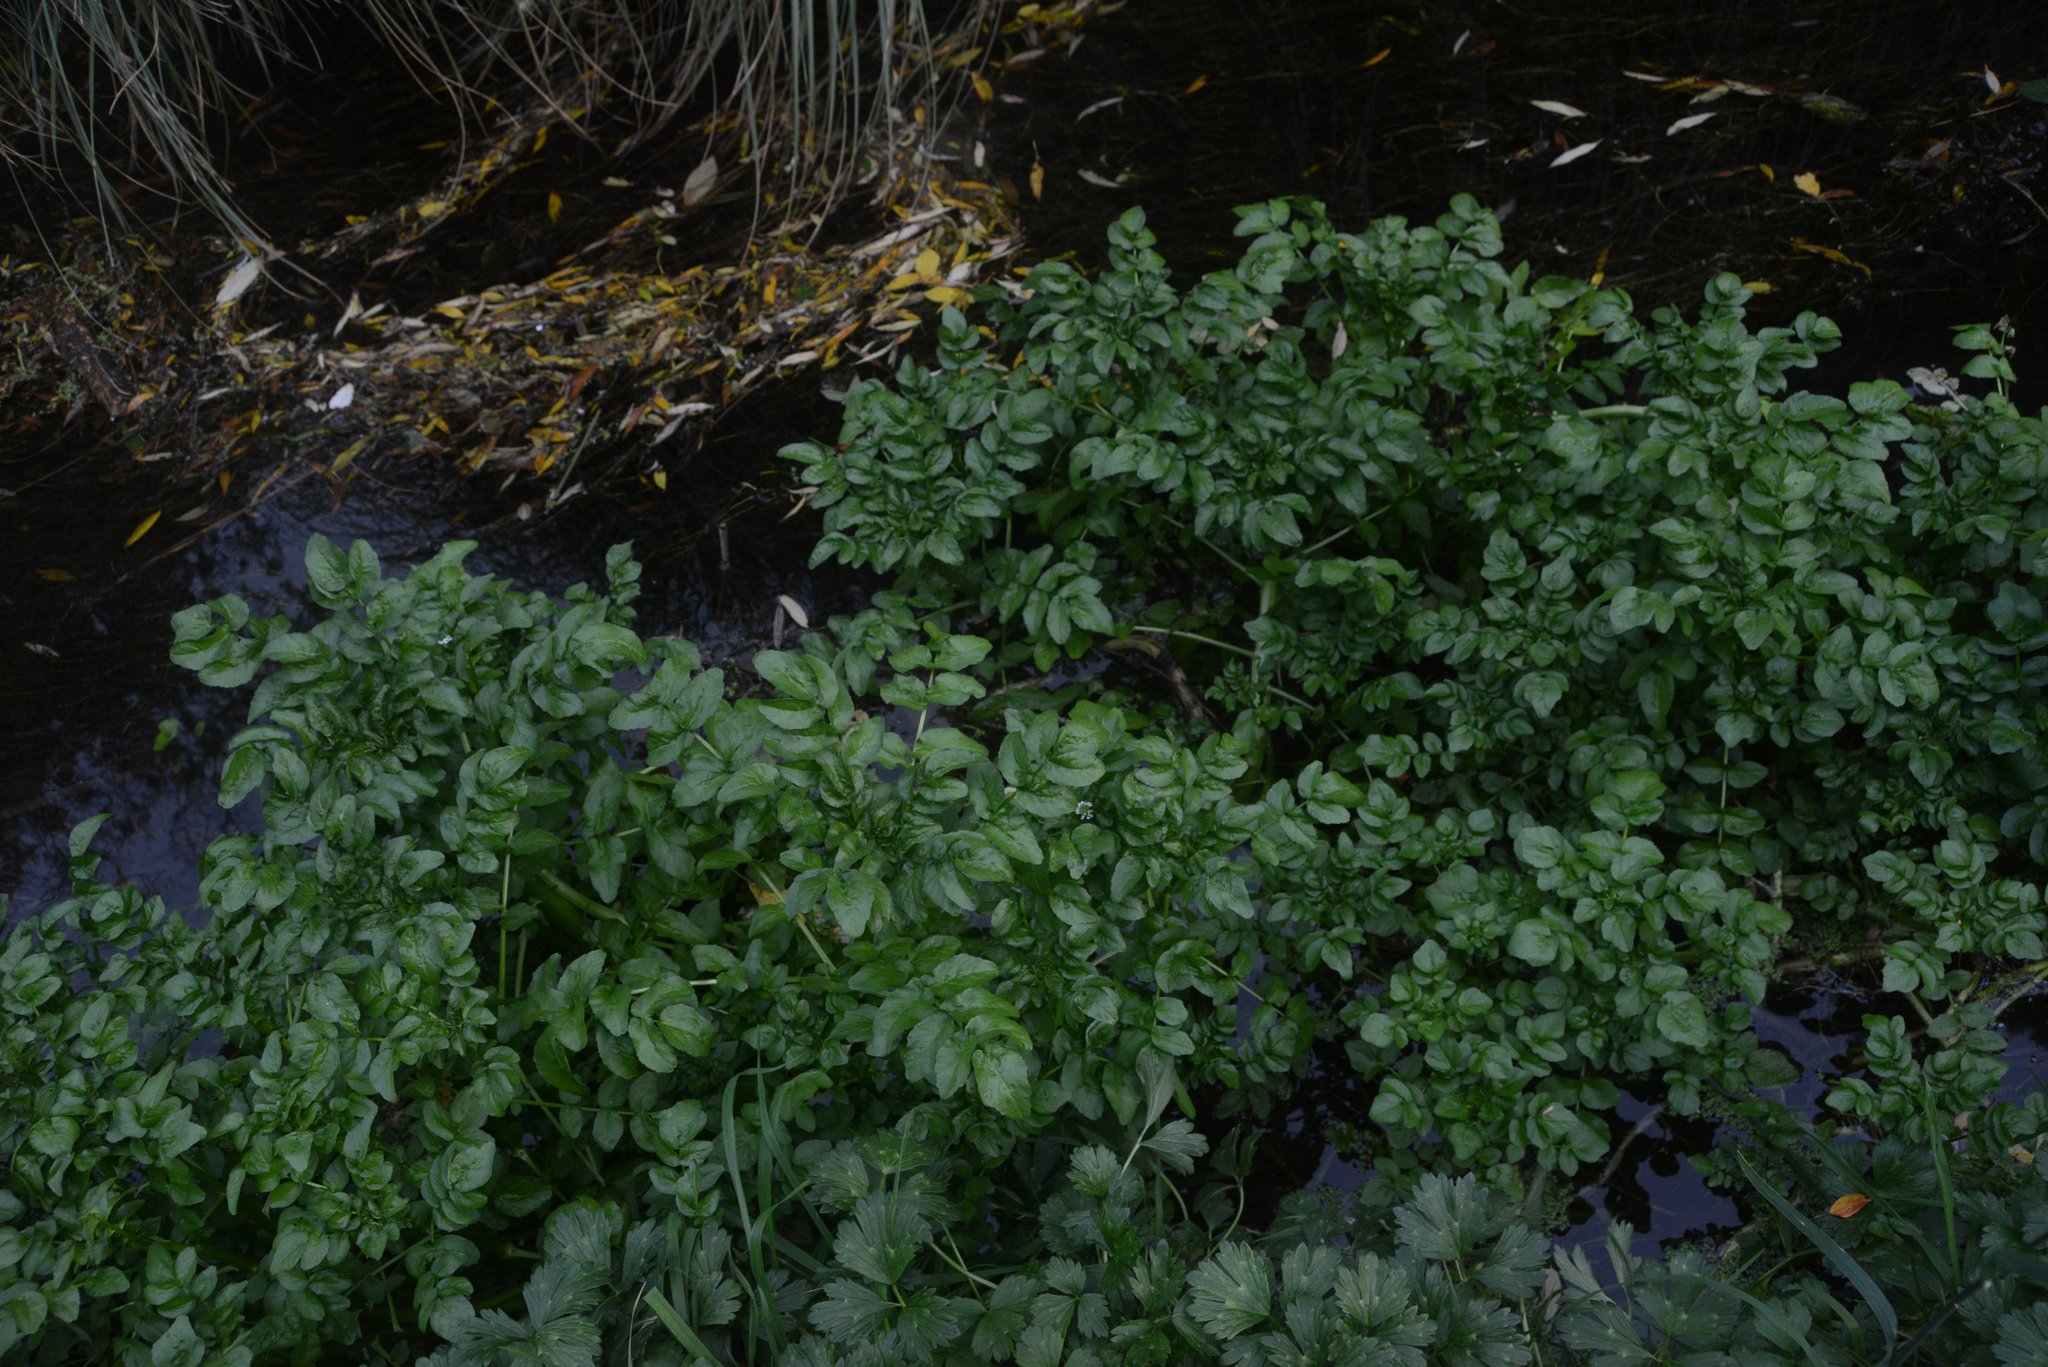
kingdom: Plantae
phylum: Tracheophyta
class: Magnoliopsida
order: Brassicales
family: Brassicaceae
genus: Nasturtium
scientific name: Nasturtium officinale
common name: Watercress
